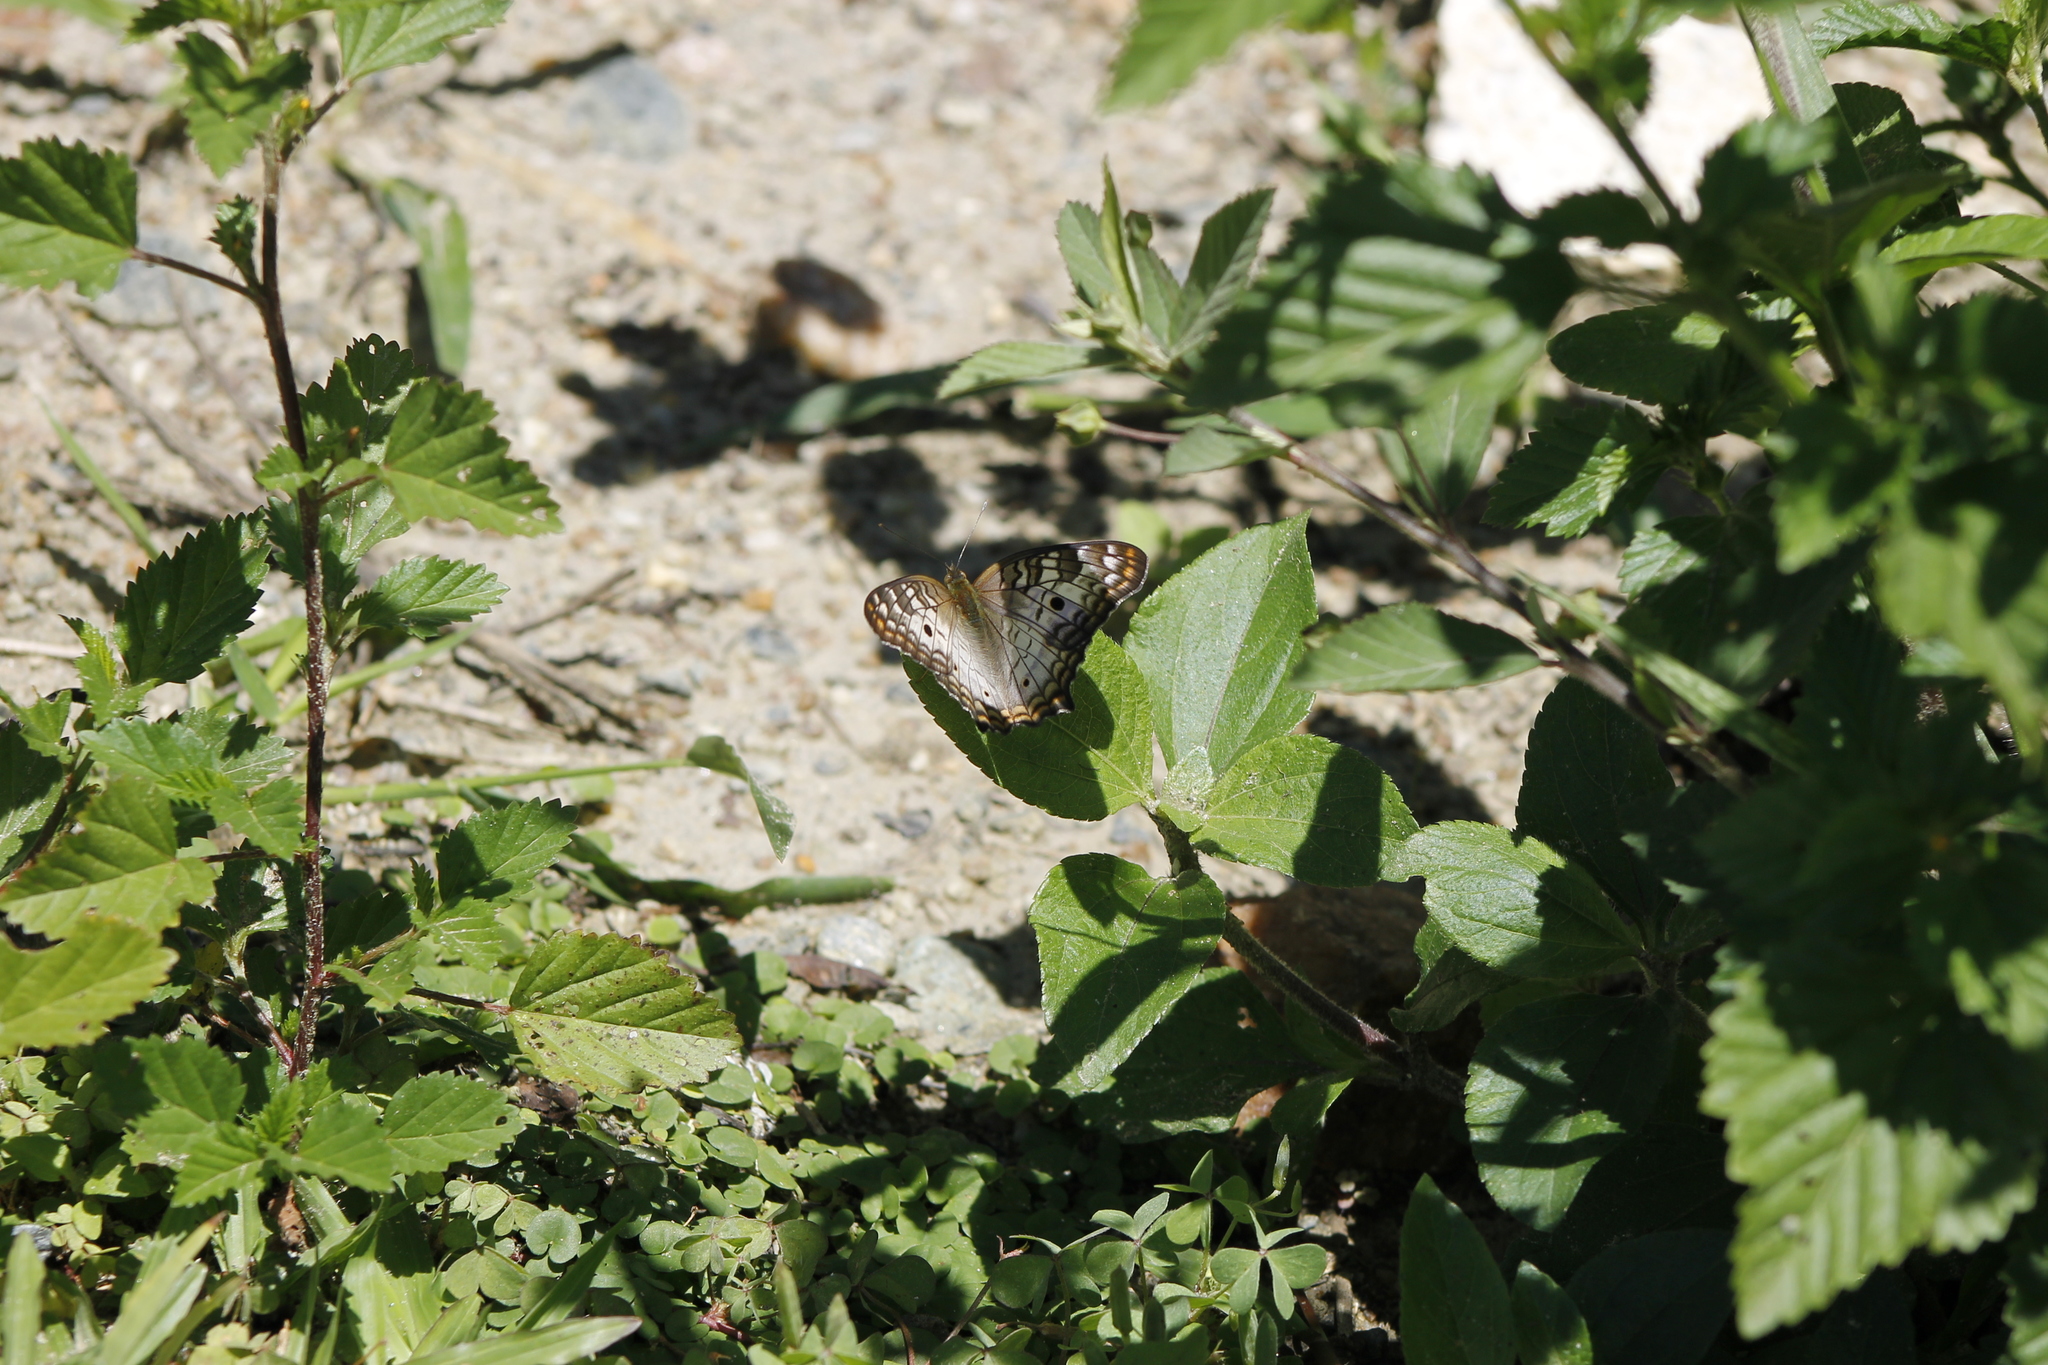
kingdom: Animalia
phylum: Arthropoda
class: Insecta
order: Lepidoptera
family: Nymphalidae
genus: Anartia
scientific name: Anartia jatrophae
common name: White peacock
